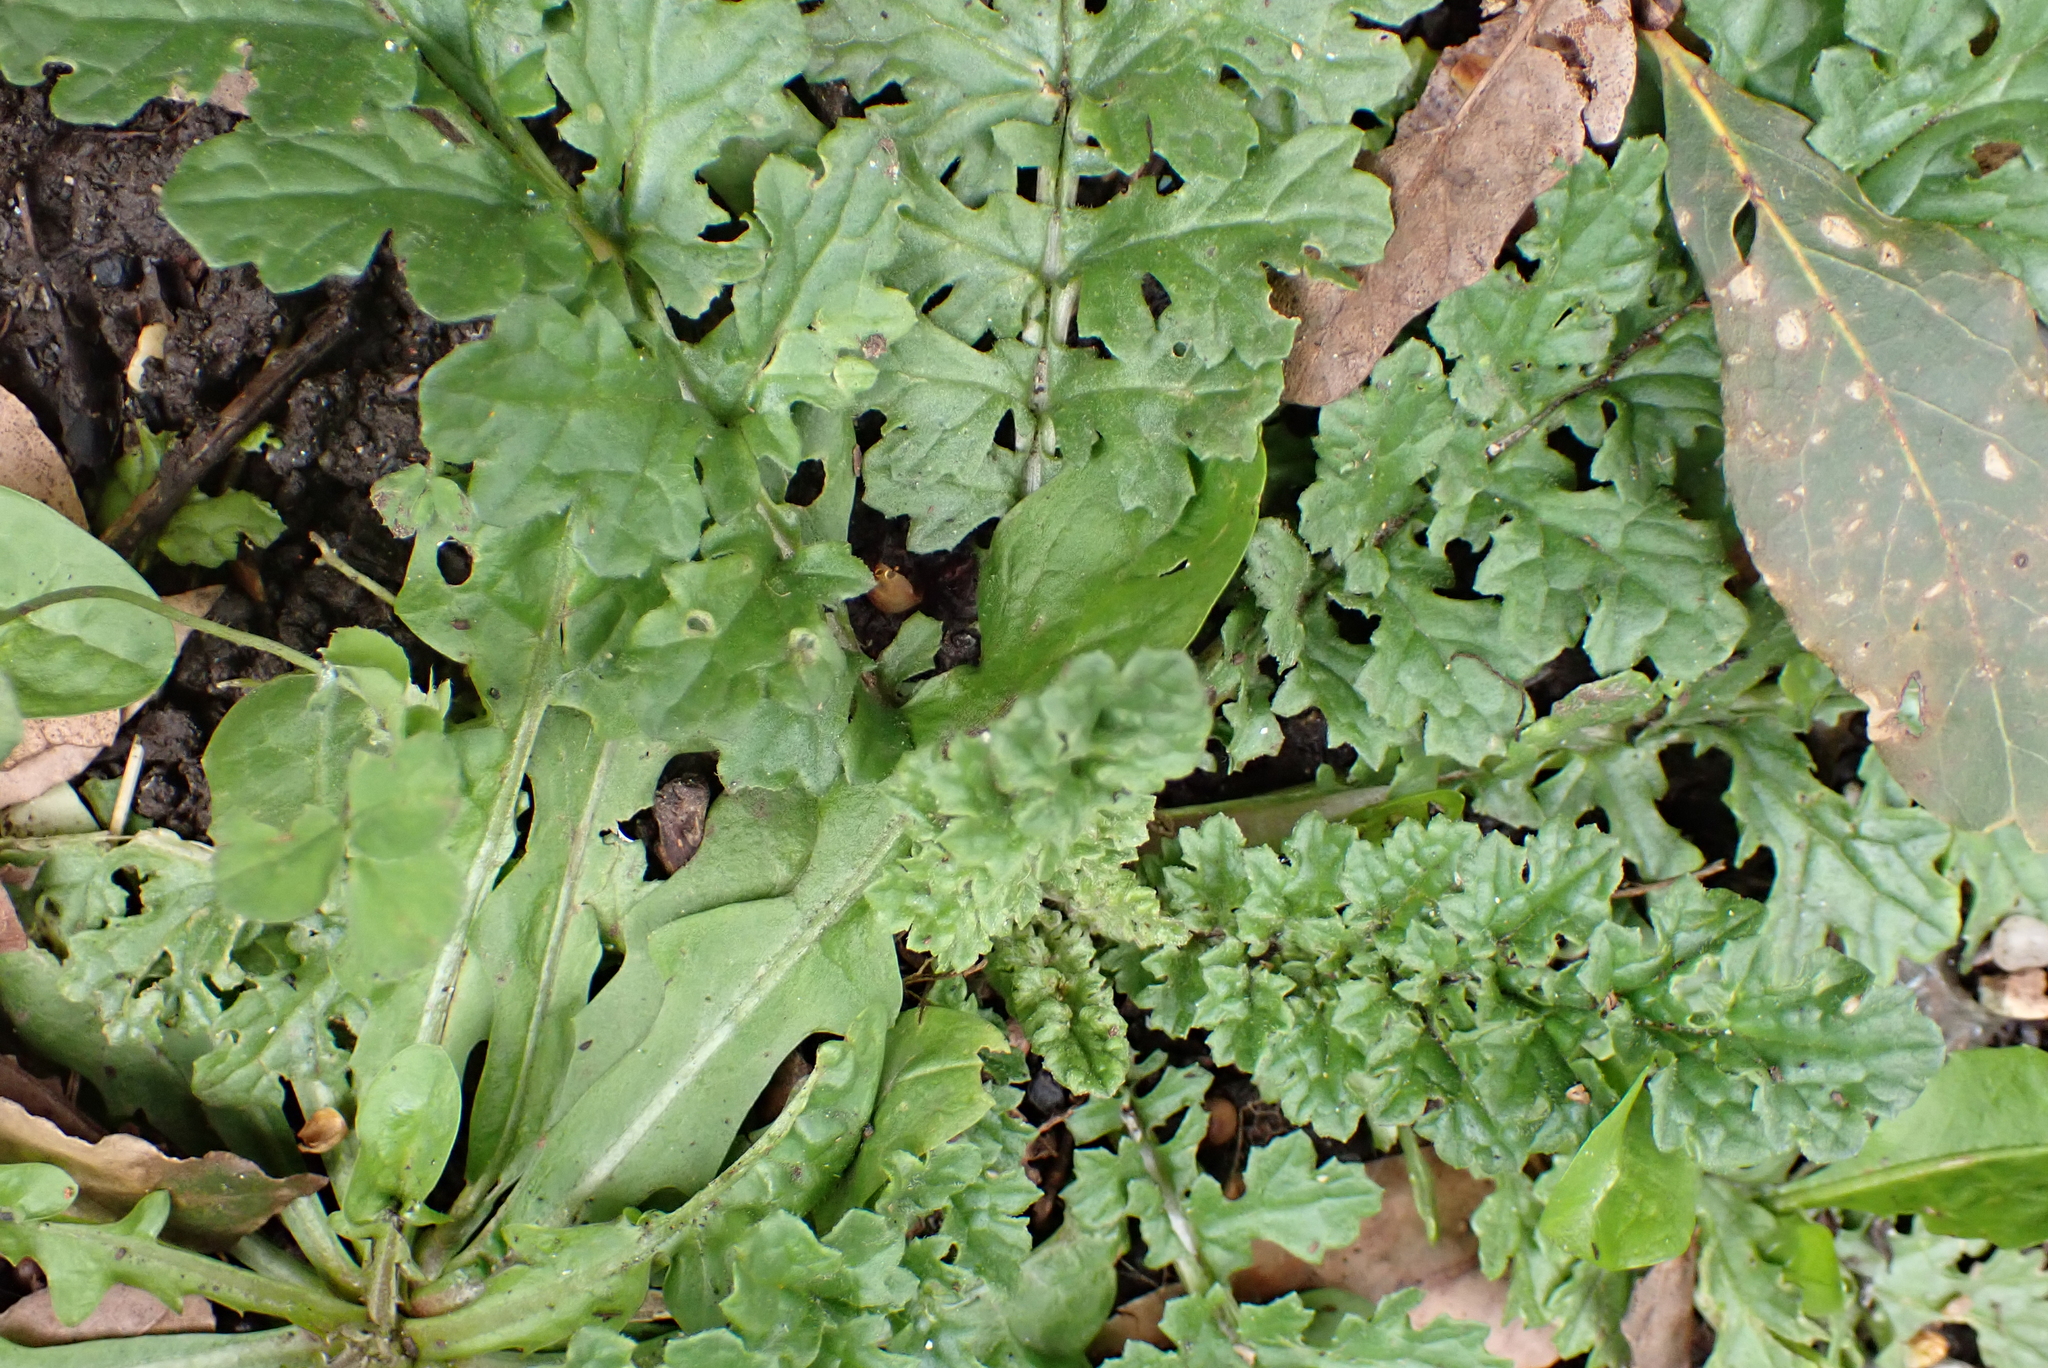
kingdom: Plantae
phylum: Tracheophyta
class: Magnoliopsida
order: Asterales
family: Asteraceae
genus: Jacobaea
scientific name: Jacobaea vulgaris
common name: Stinking willie
